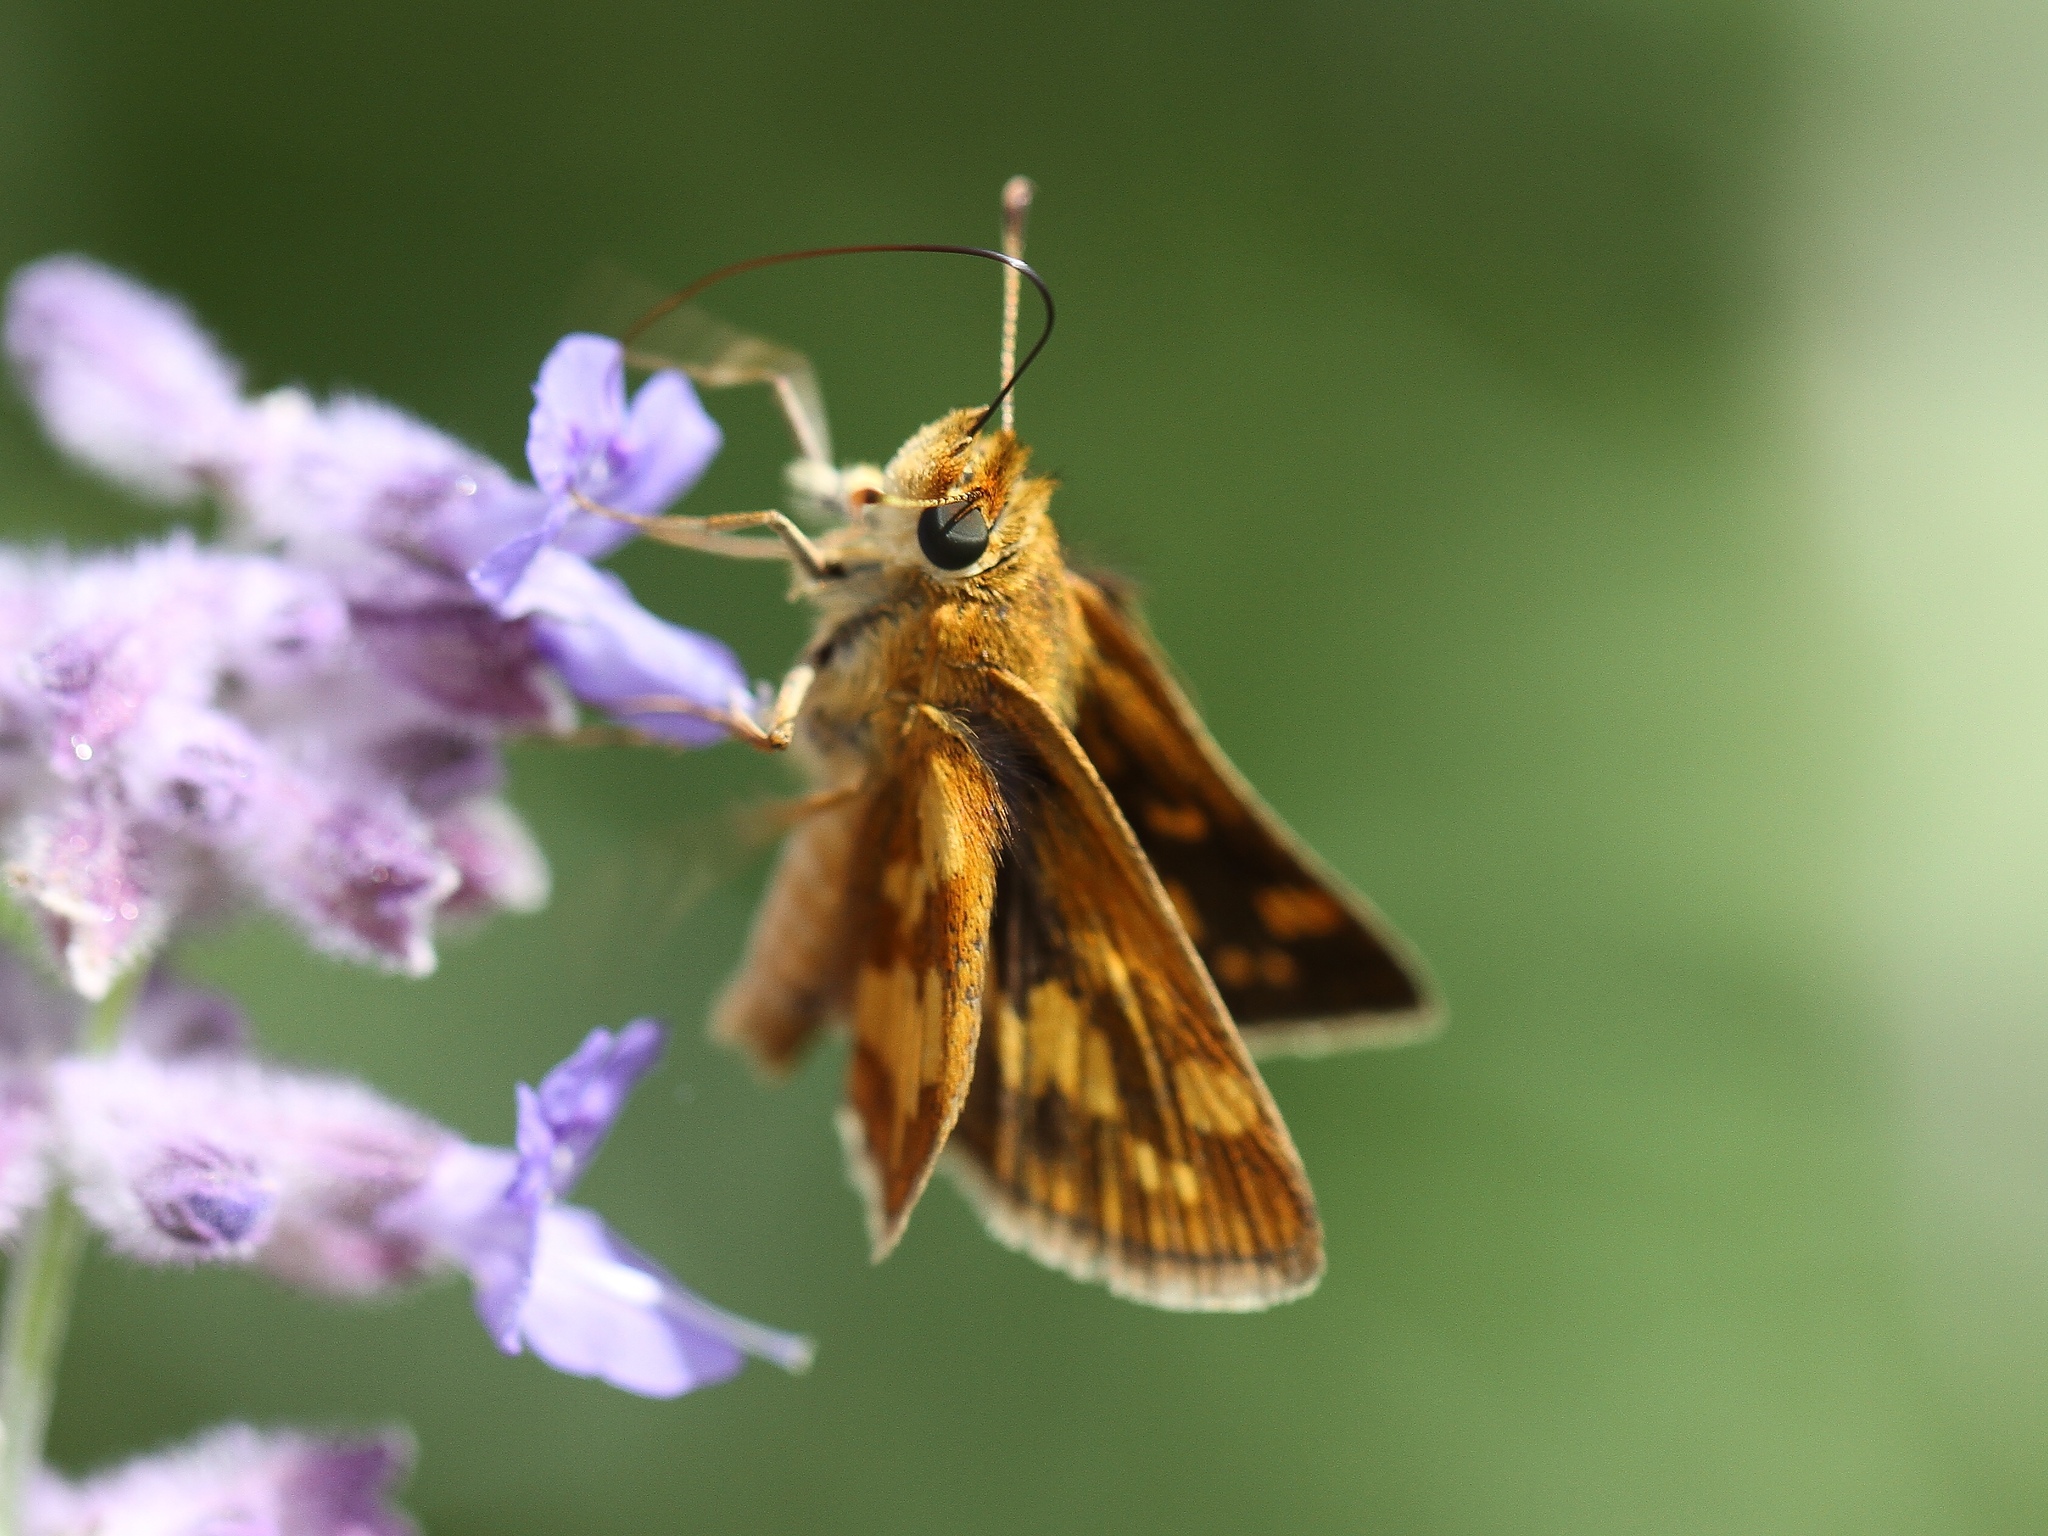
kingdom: Animalia
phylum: Arthropoda
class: Insecta
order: Lepidoptera
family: Hesperiidae
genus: Polites
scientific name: Polites coras
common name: Peck's skipper
